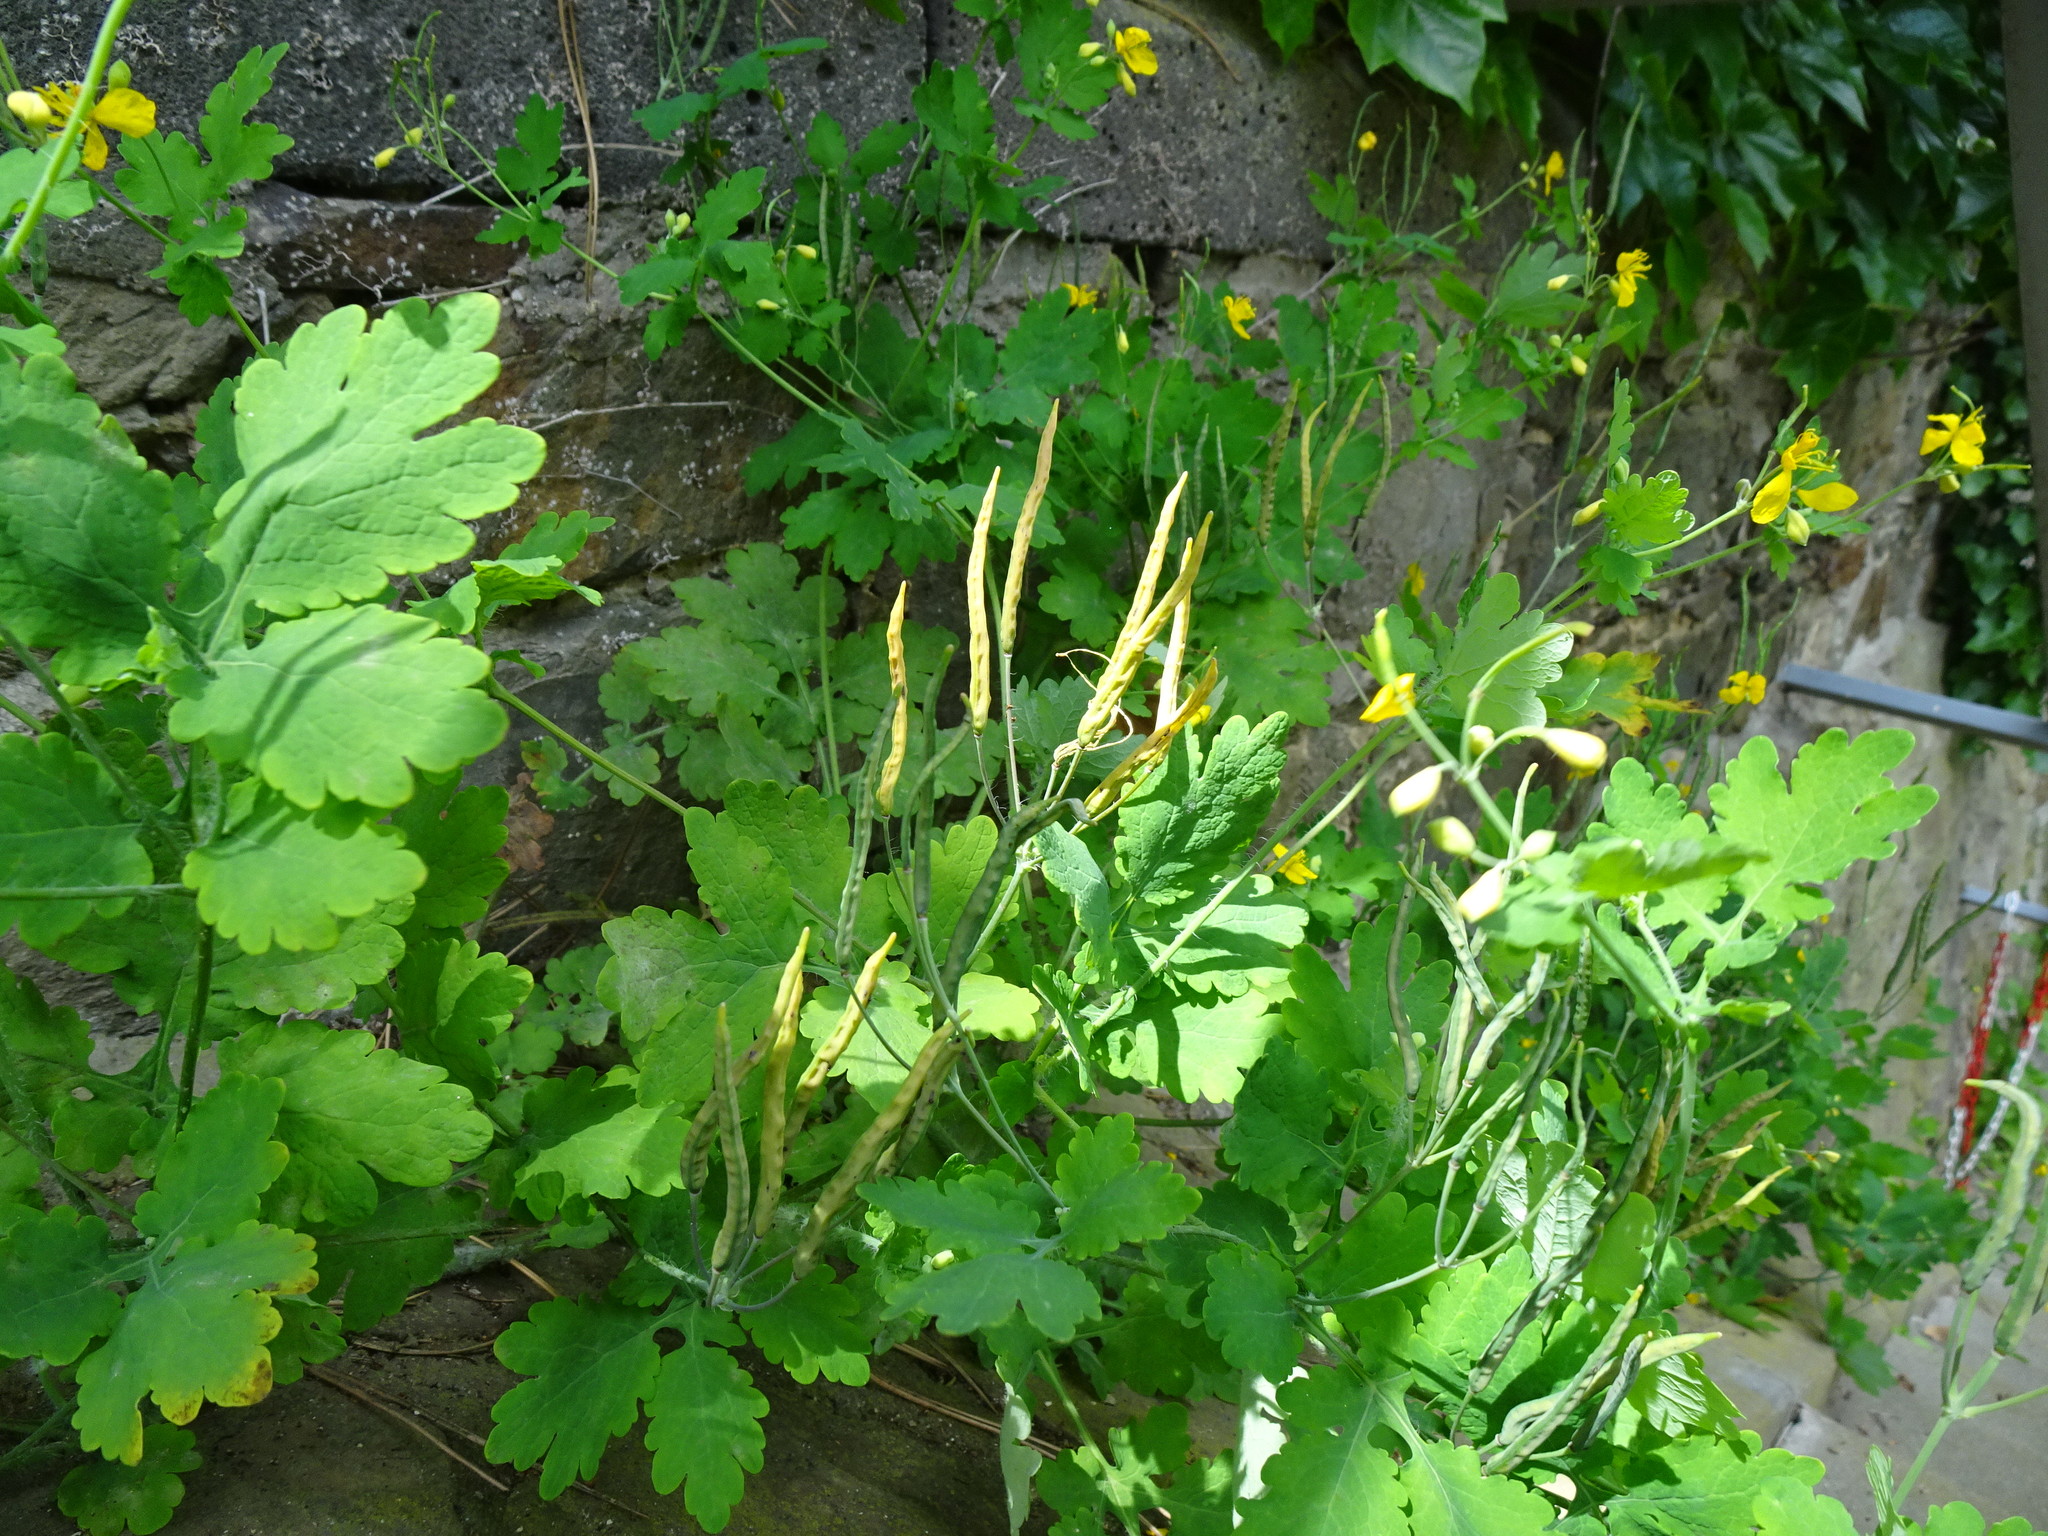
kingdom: Plantae
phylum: Tracheophyta
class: Magnoliopsida
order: Ranunculales
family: Papaveraceae
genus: Chelidonium
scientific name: Chelidonium majus
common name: Greater celandine
